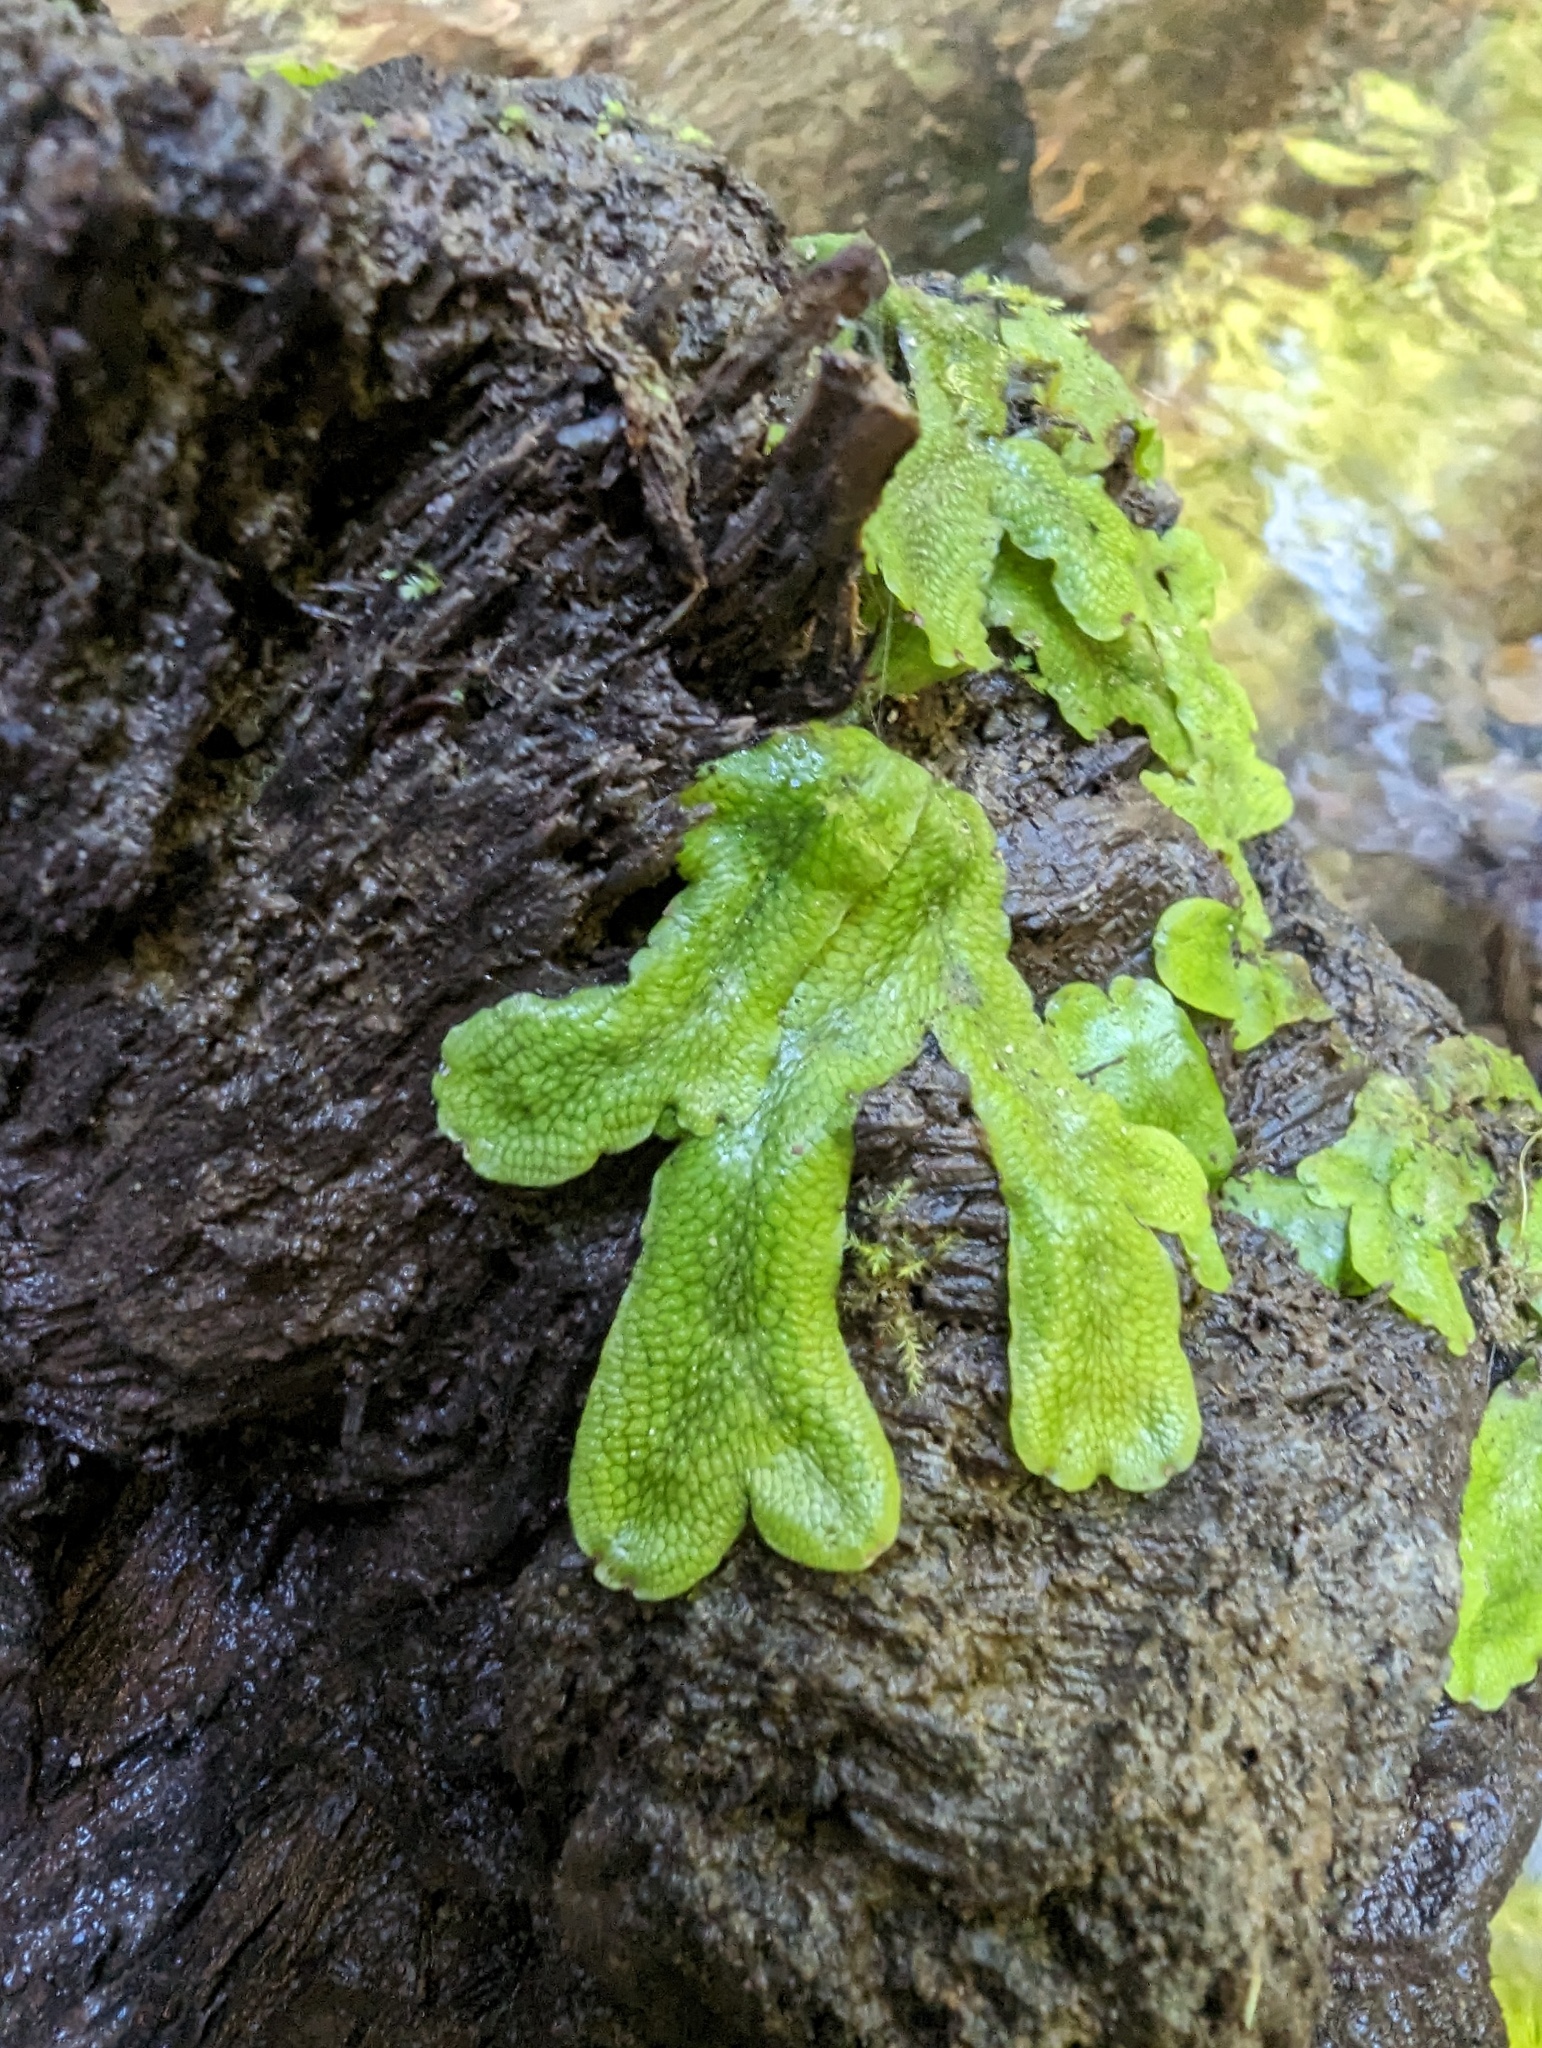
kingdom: Plantae
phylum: Marchantiophyta
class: Marchantiopsida
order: Marchantiales
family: Conocephalaceae
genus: Conocephalum
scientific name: Conocephalum salebrosum
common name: Cat-tongue liverwort
